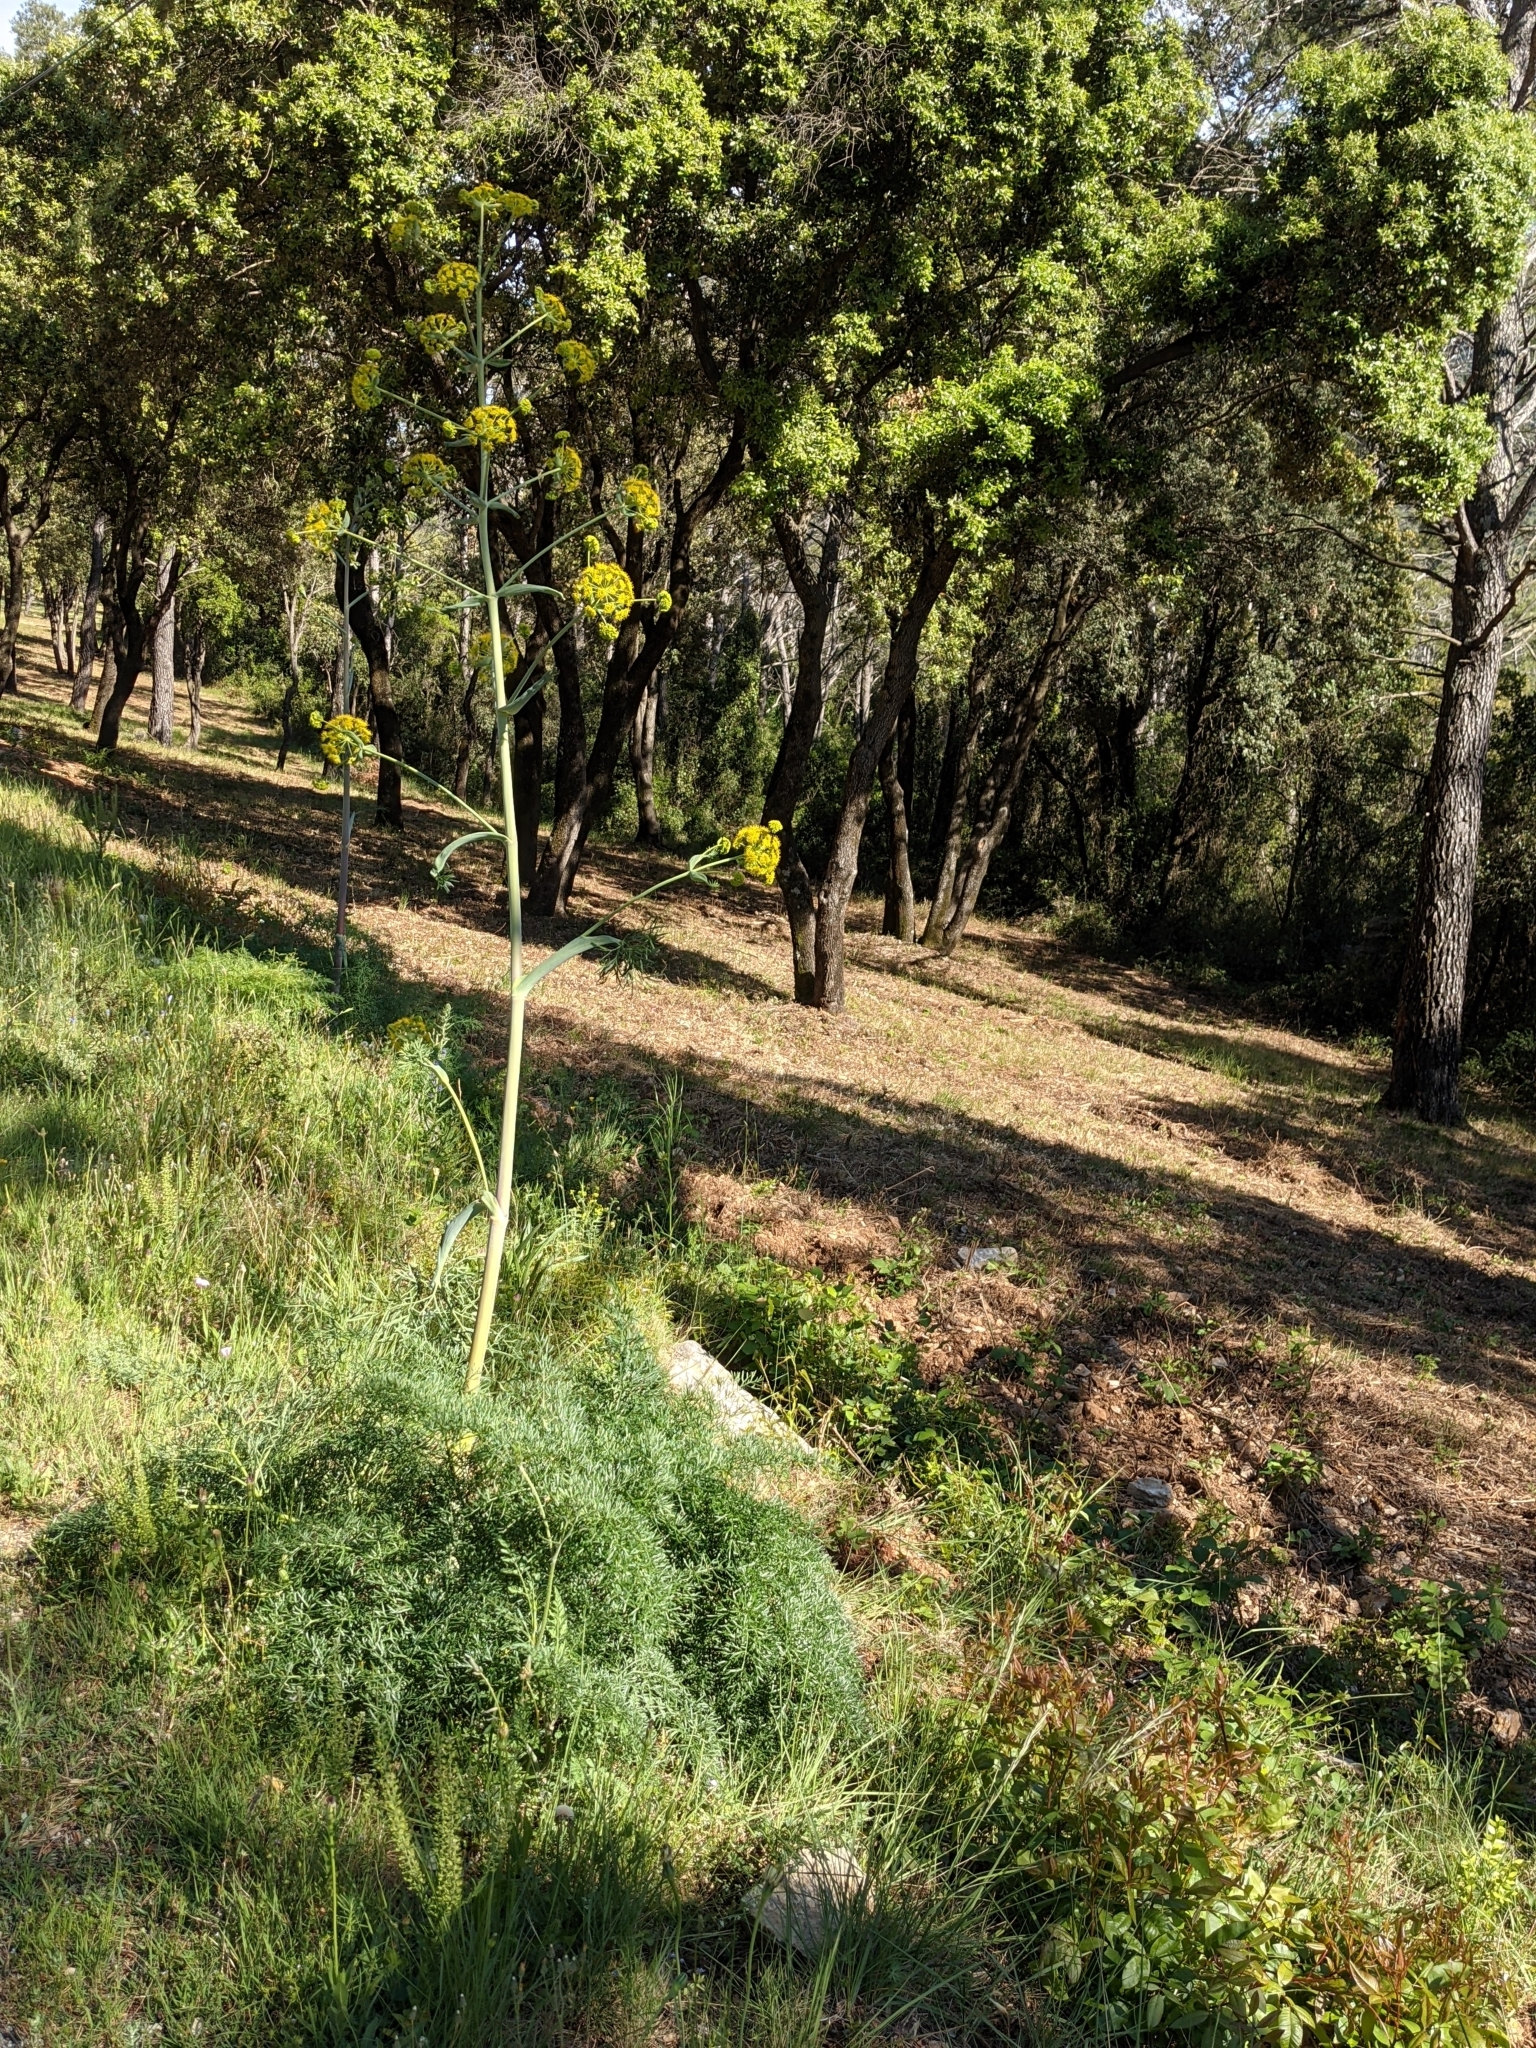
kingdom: Plantae
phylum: Tracheophyta
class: Magnoliopsida
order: Apiales
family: Apiaceae
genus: Ferula
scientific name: Ferula glauca
